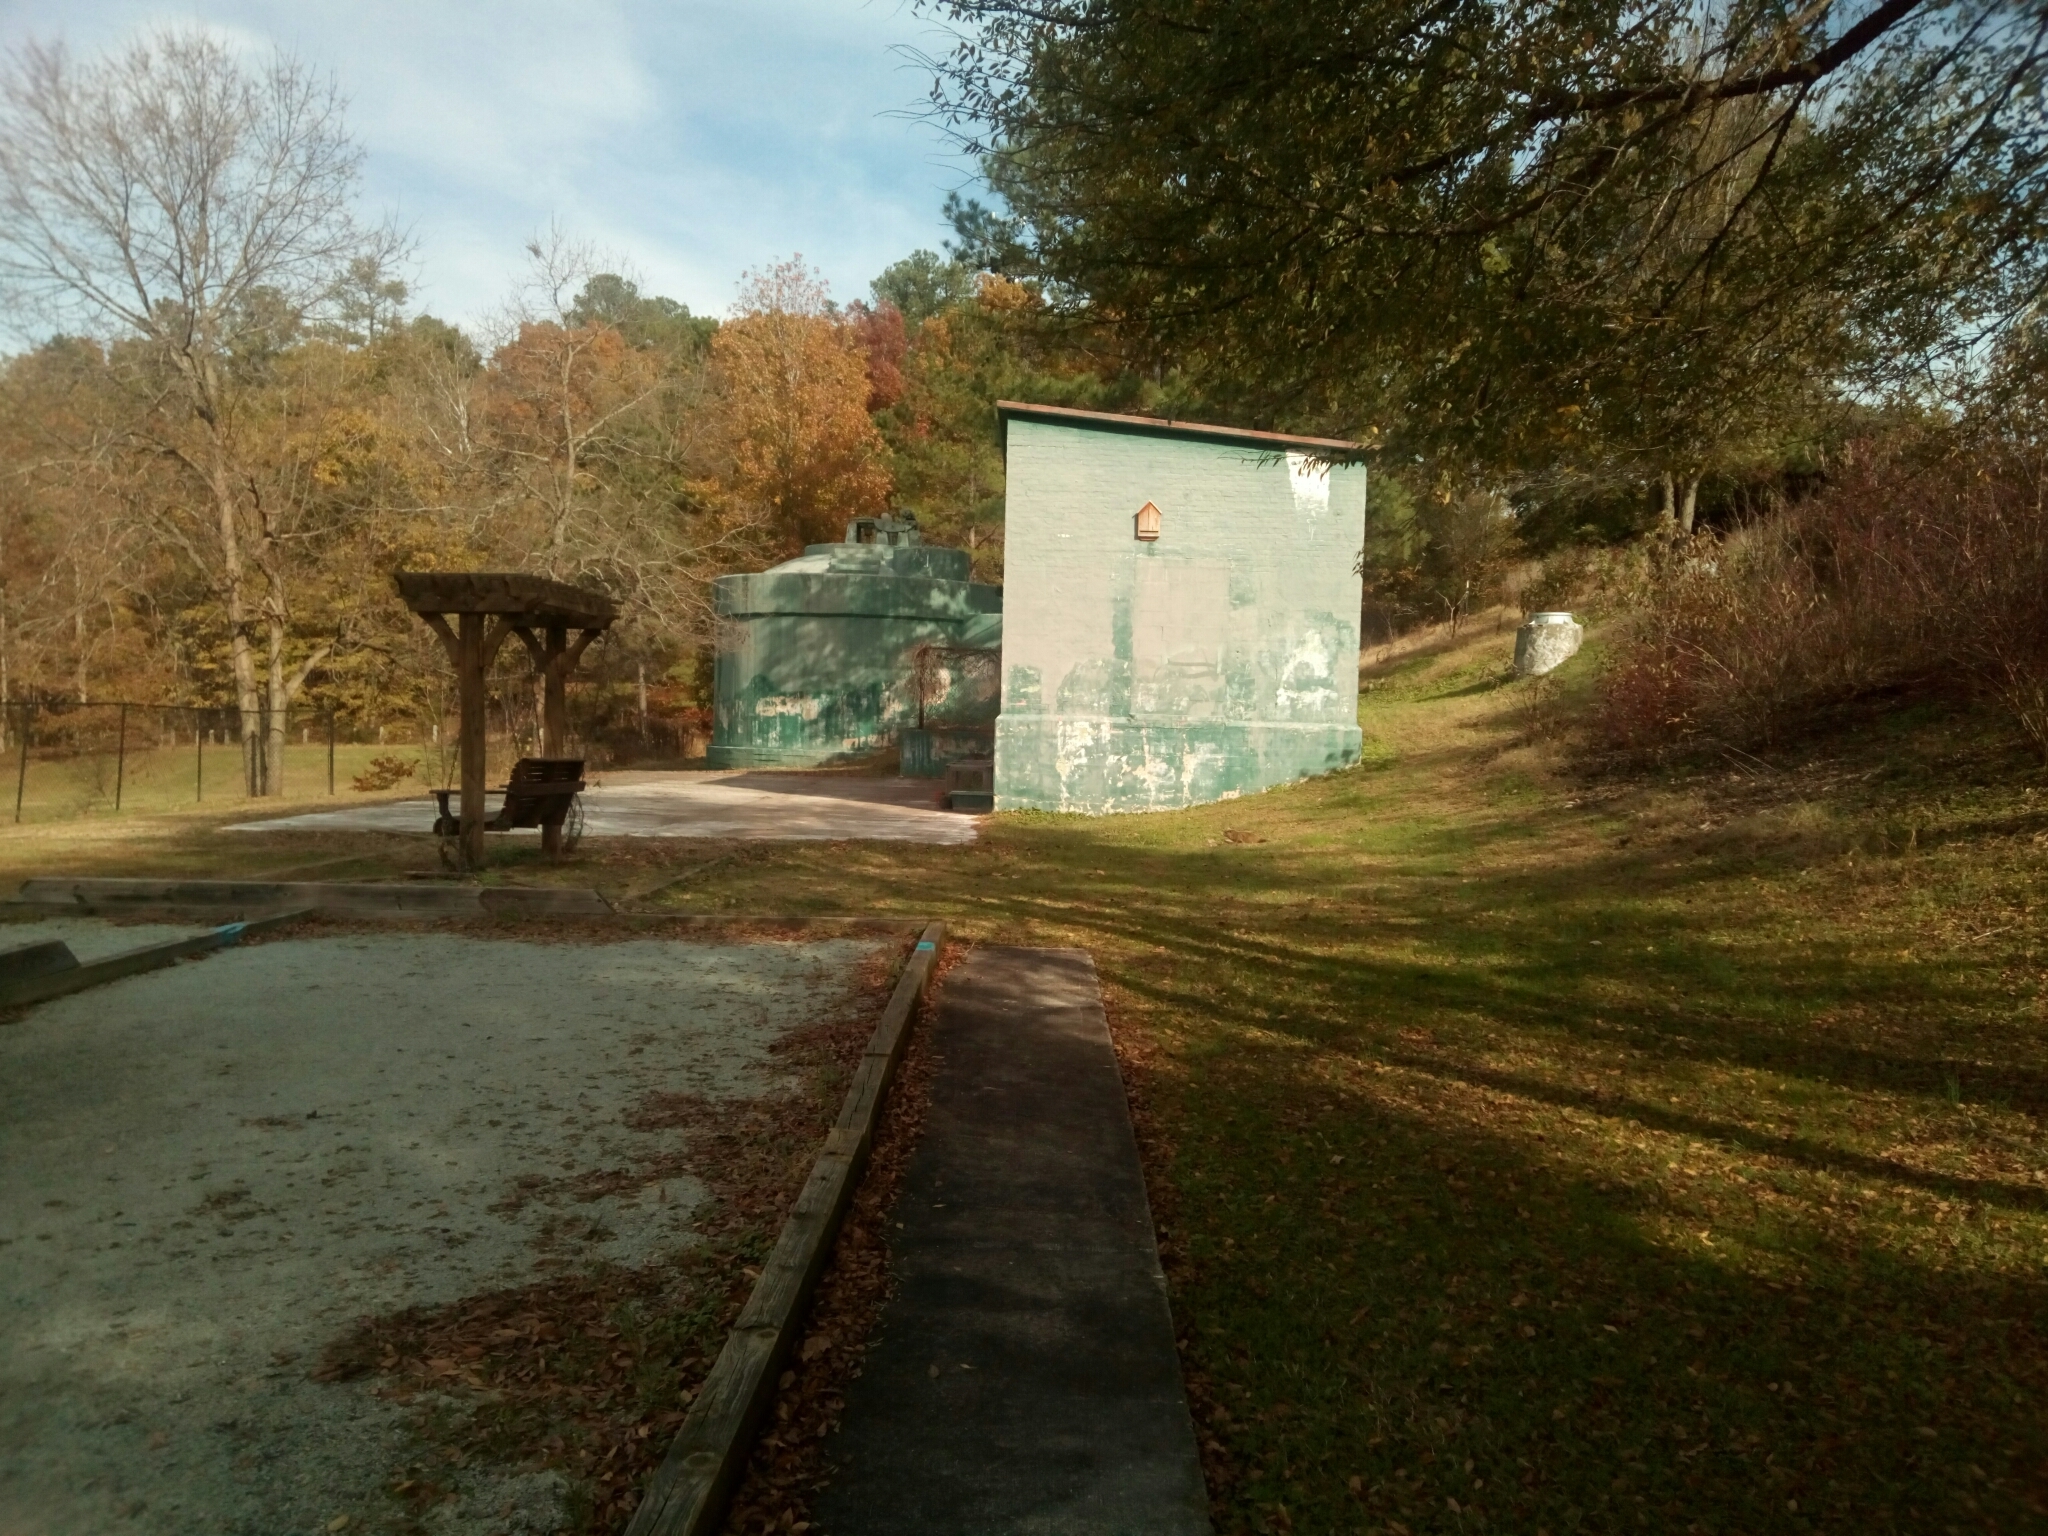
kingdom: Animalia
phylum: Chordata
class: Mammalia
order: Rodentia
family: Sciuridae
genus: Marmota
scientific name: Marmota monax
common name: Groundhog
